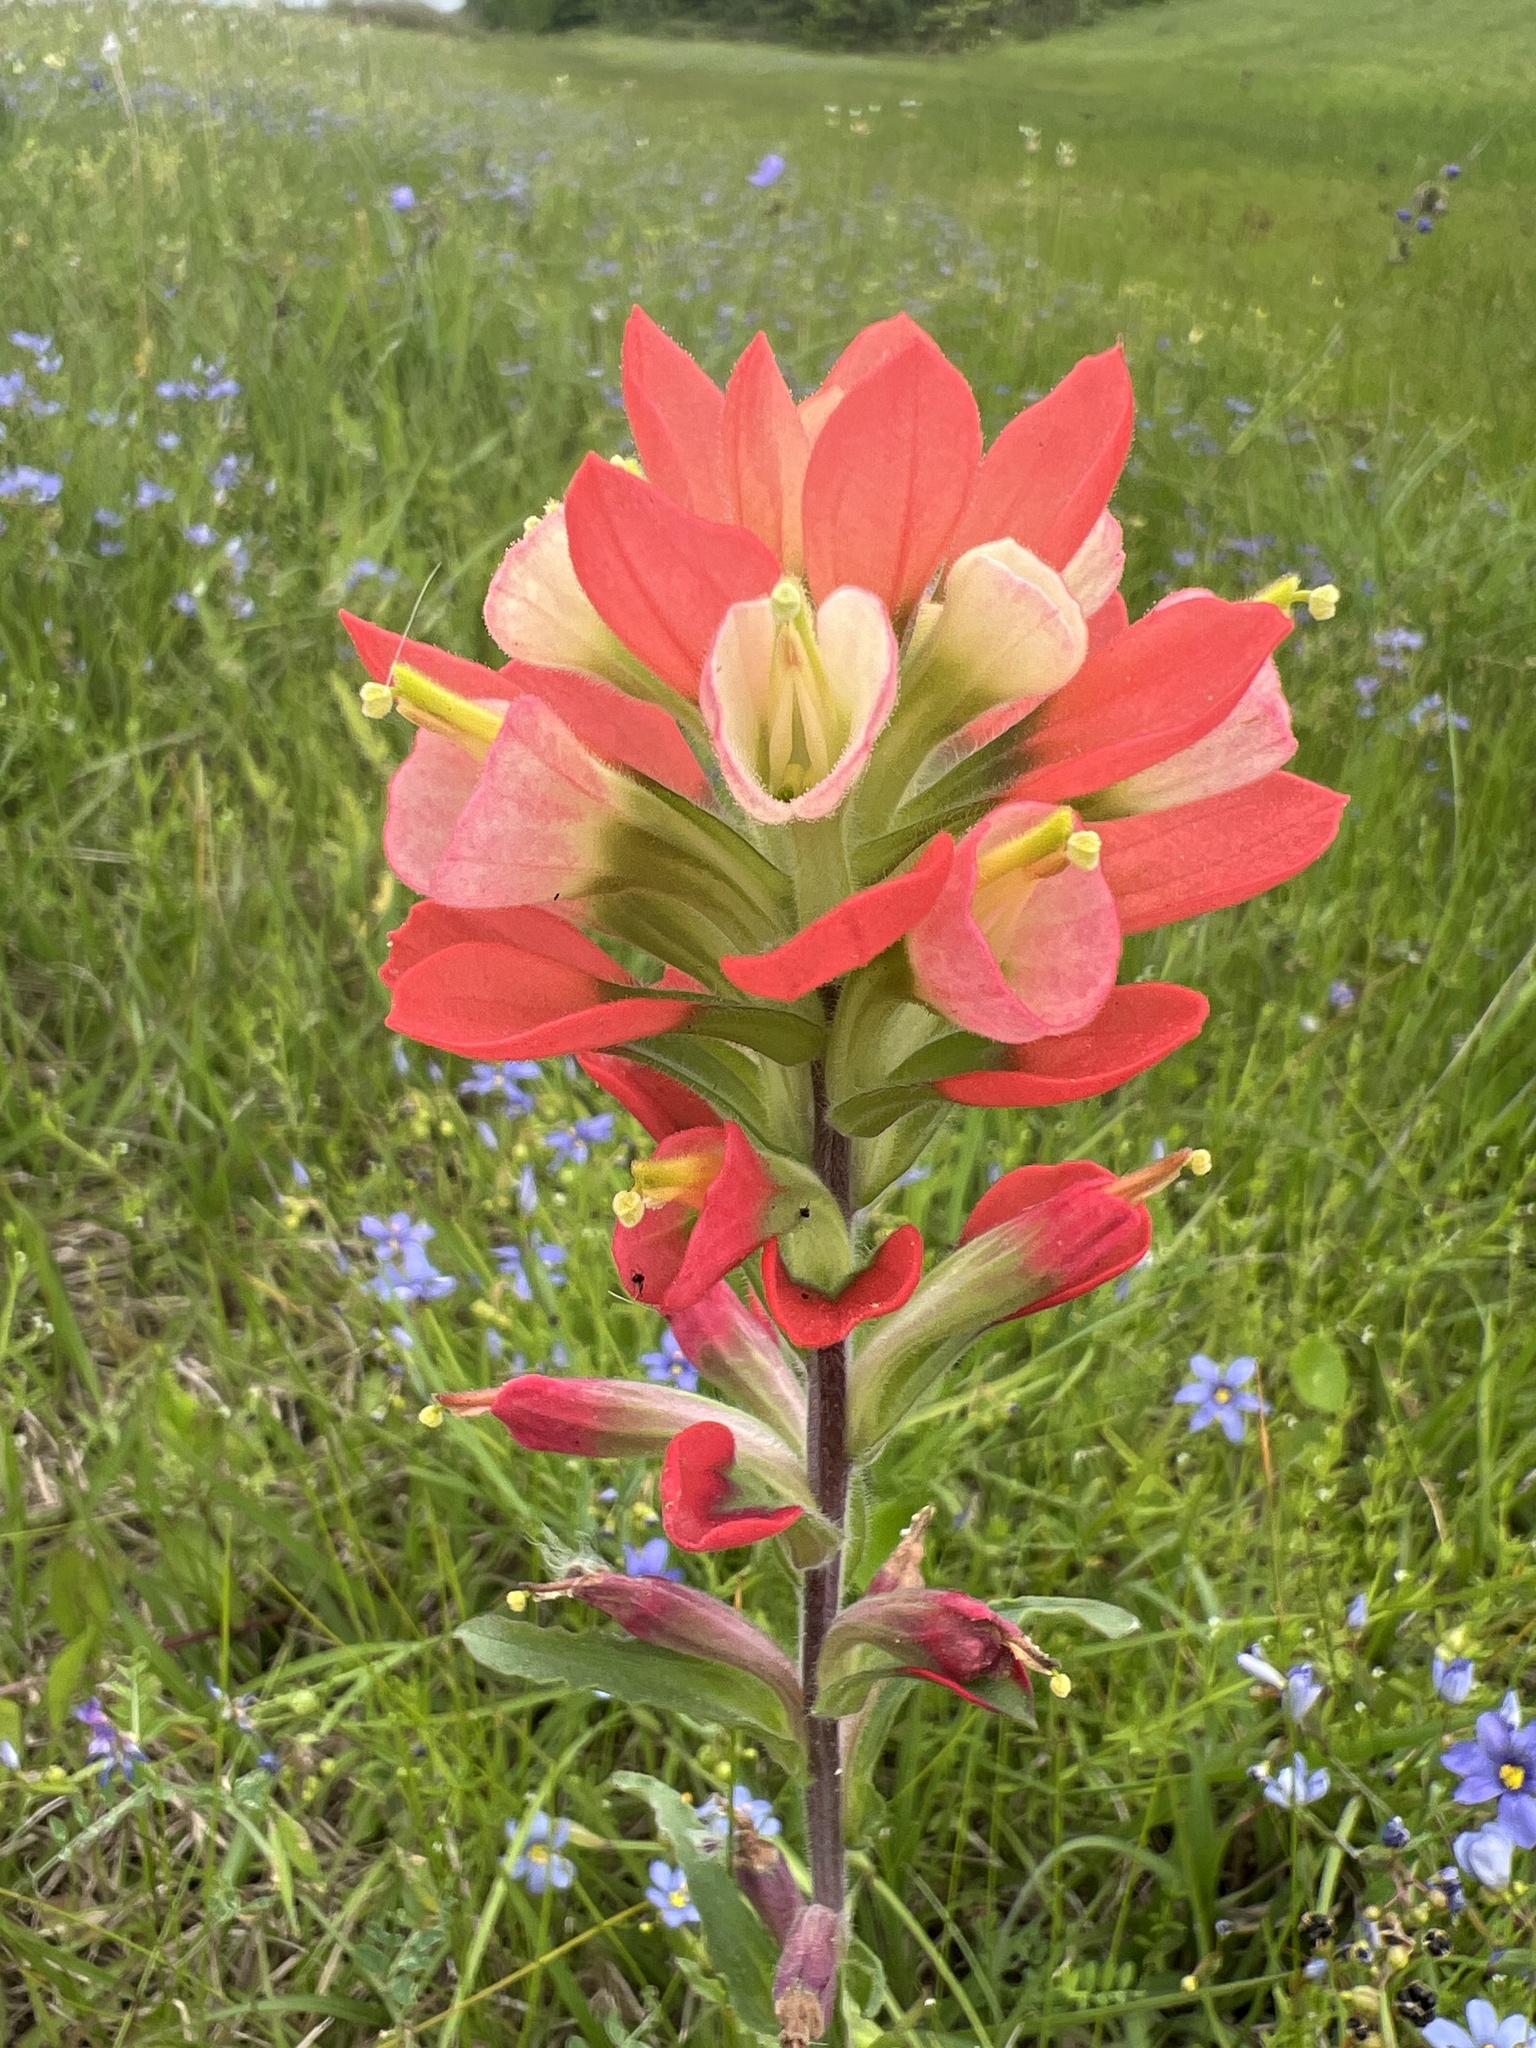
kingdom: Plantae
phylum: Tracheophyta
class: Magnoliopsida
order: Lamiales
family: Orobanchaceae
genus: Castilleja
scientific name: Castilleja indivisa
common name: Texas paintbrush
